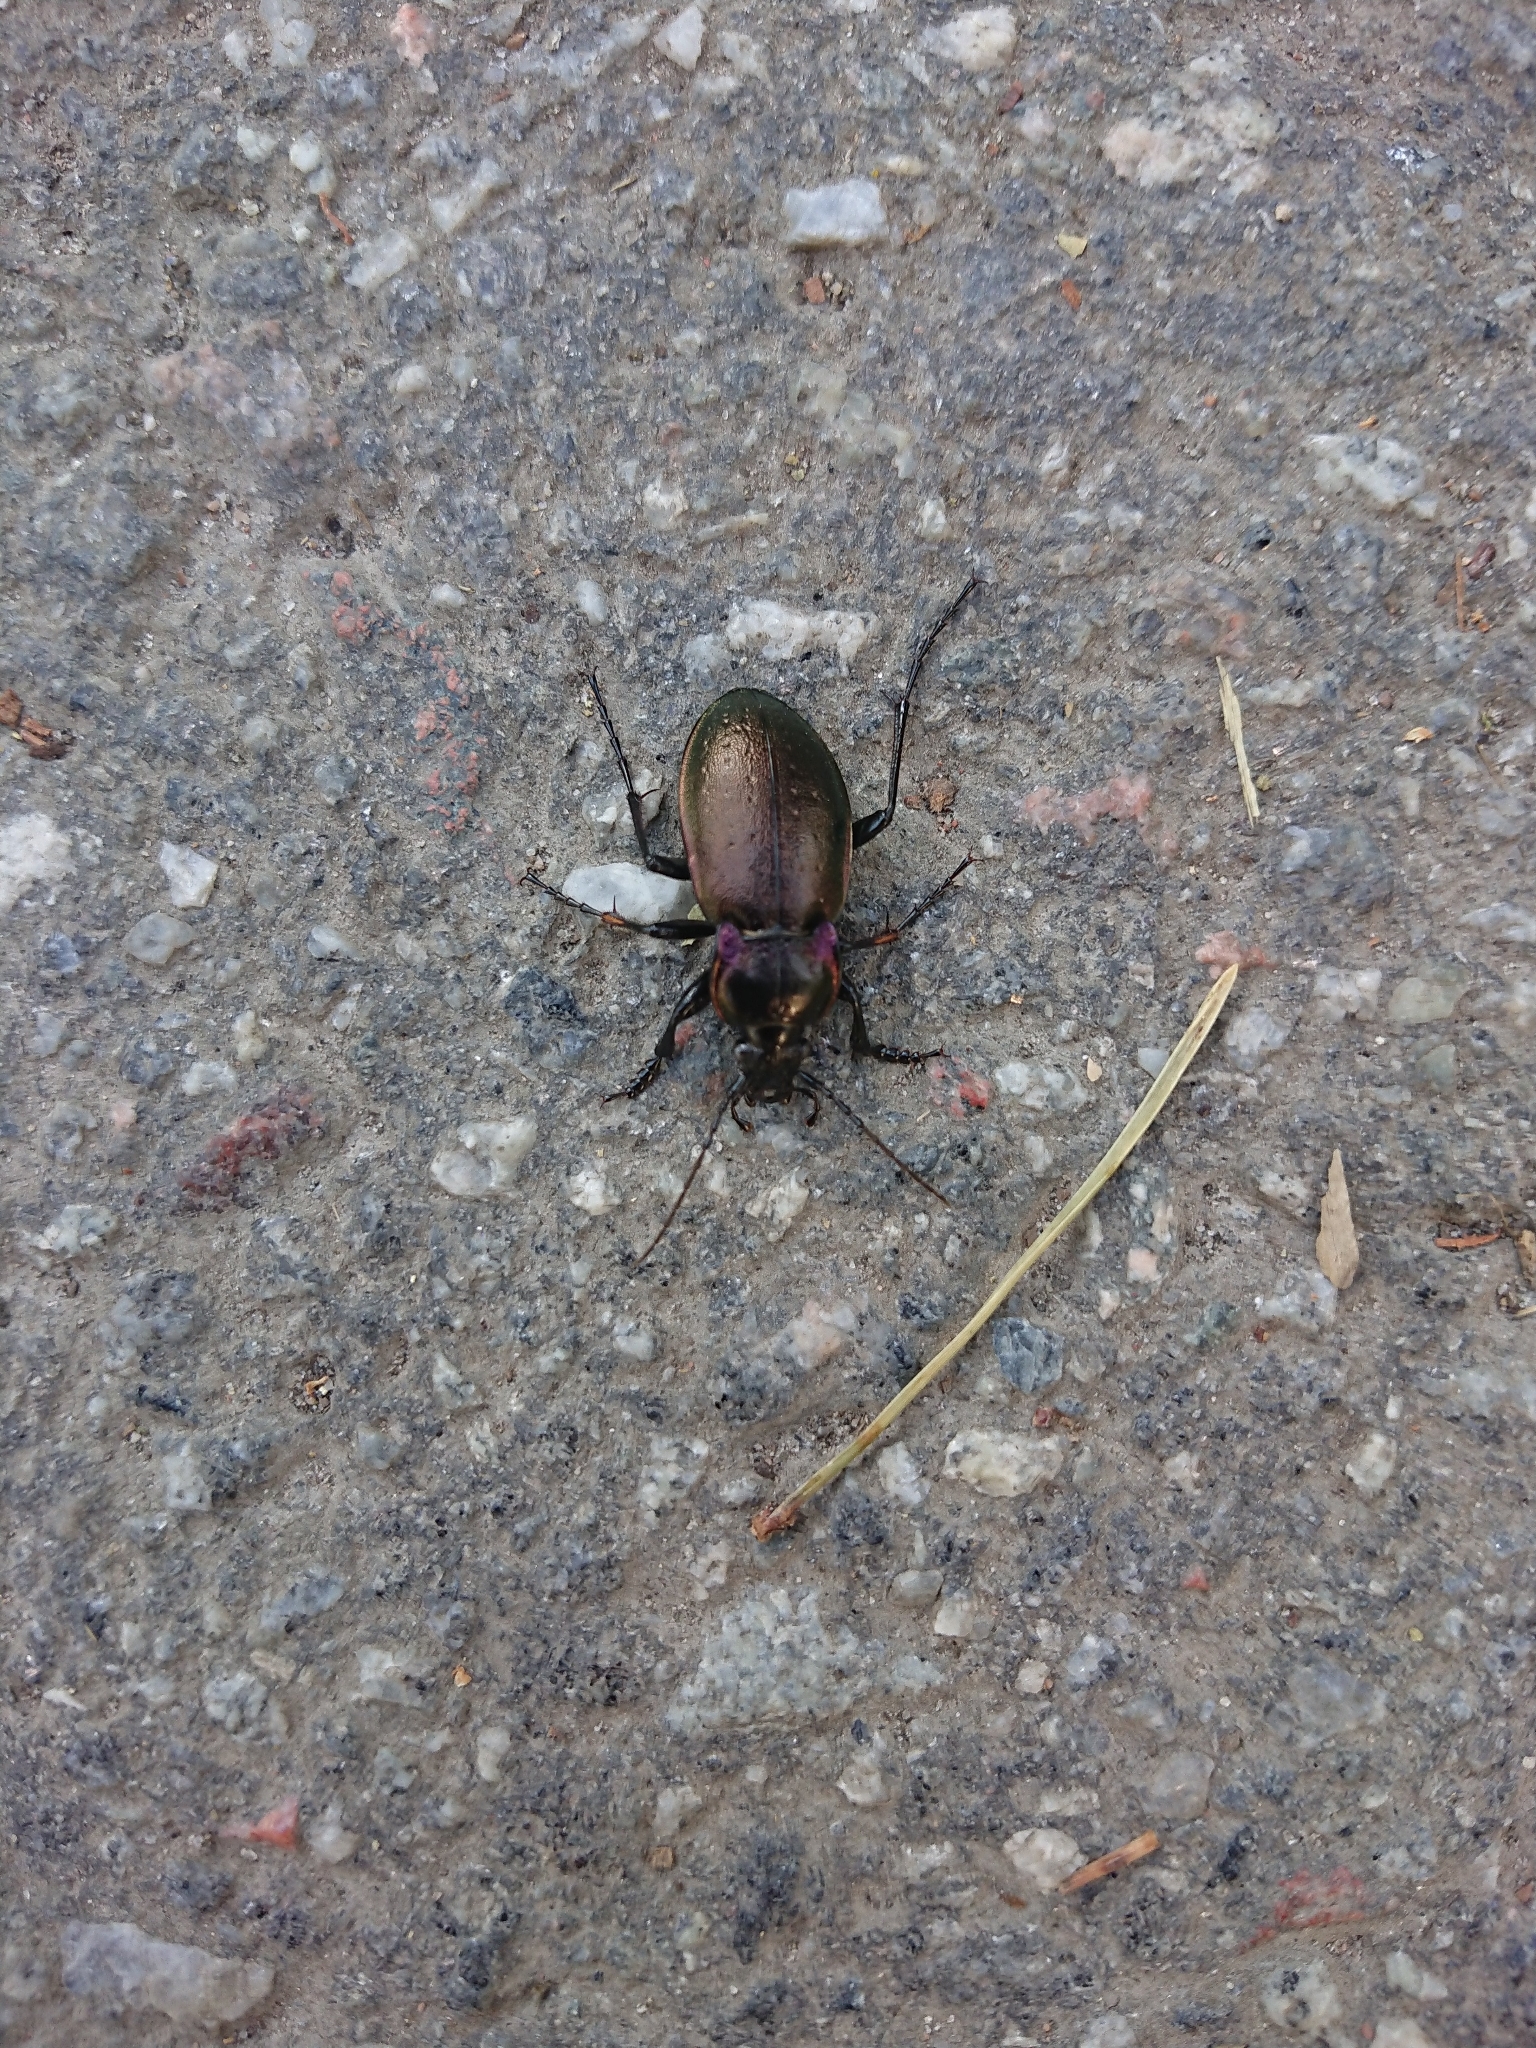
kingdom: Animalia
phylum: Arthropoda
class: Insecta
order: Coleoptera
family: Carabidae
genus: Carabus
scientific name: Carabus nemoralis
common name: European ground beetle
